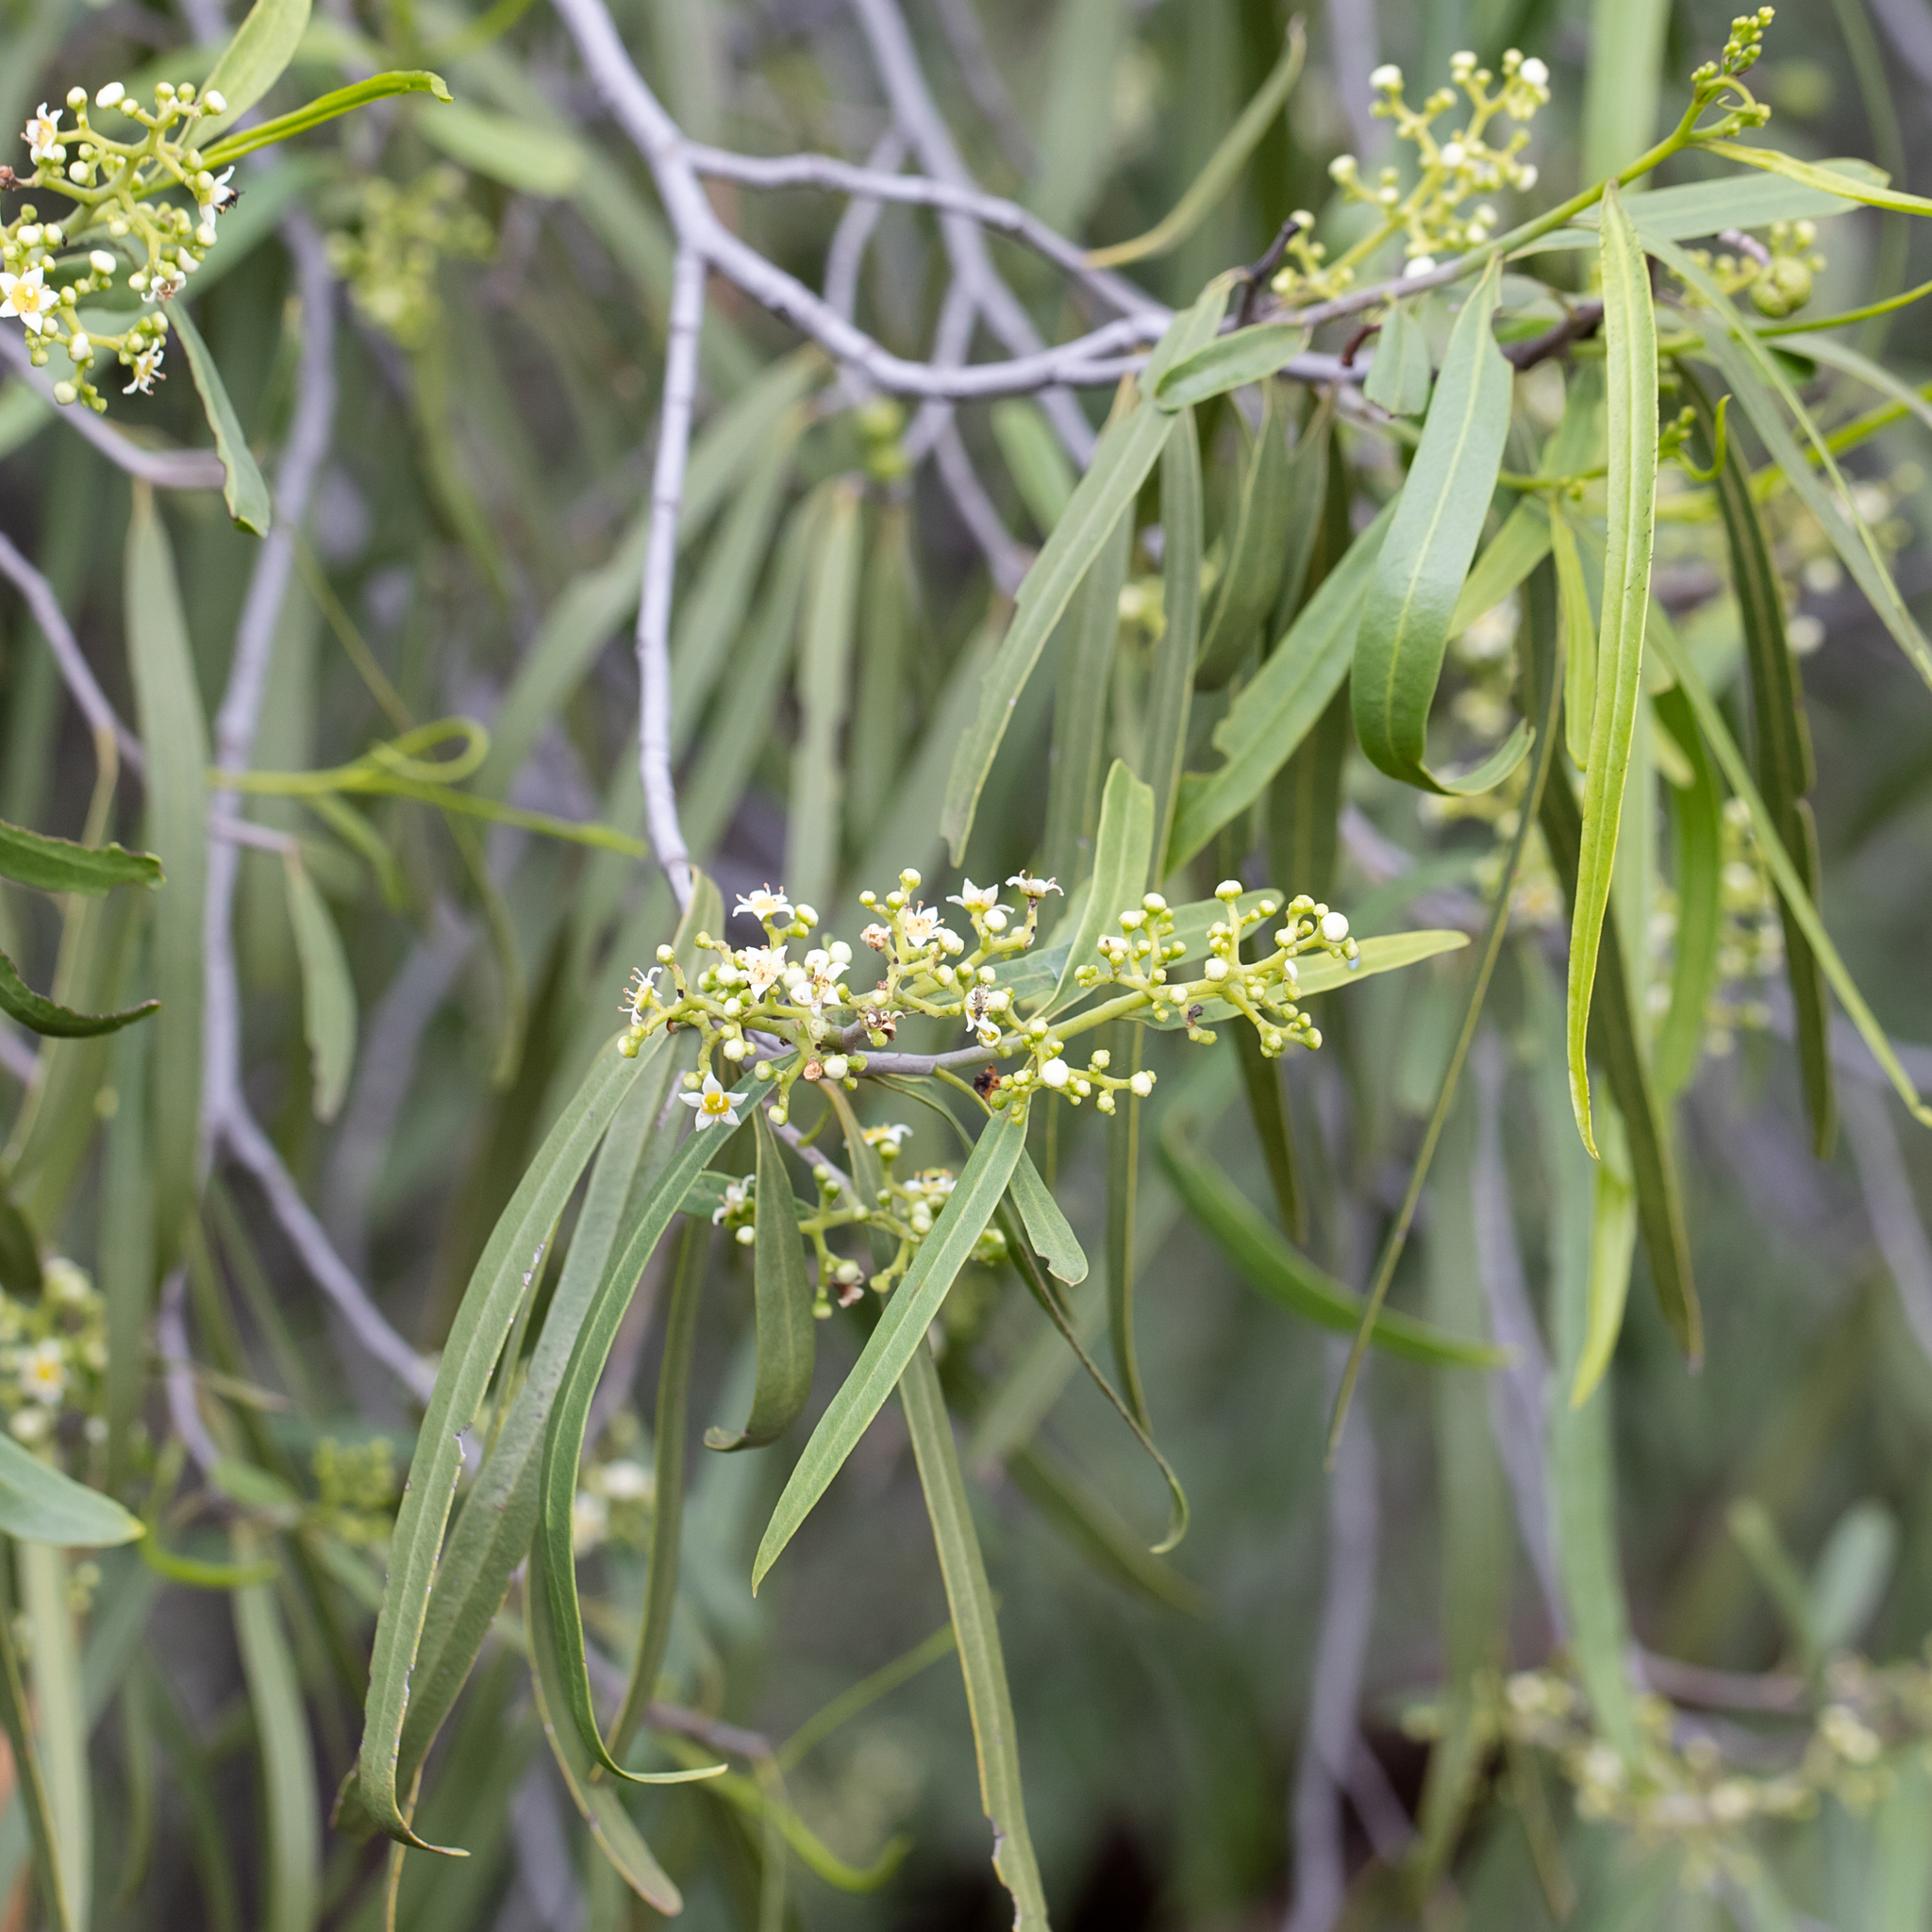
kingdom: Plantae
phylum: Tracheophyta
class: Magnoliopsida
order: Sapindales
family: Rutaceae
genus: Geijera
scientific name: Geijera parviflora
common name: Wilga
